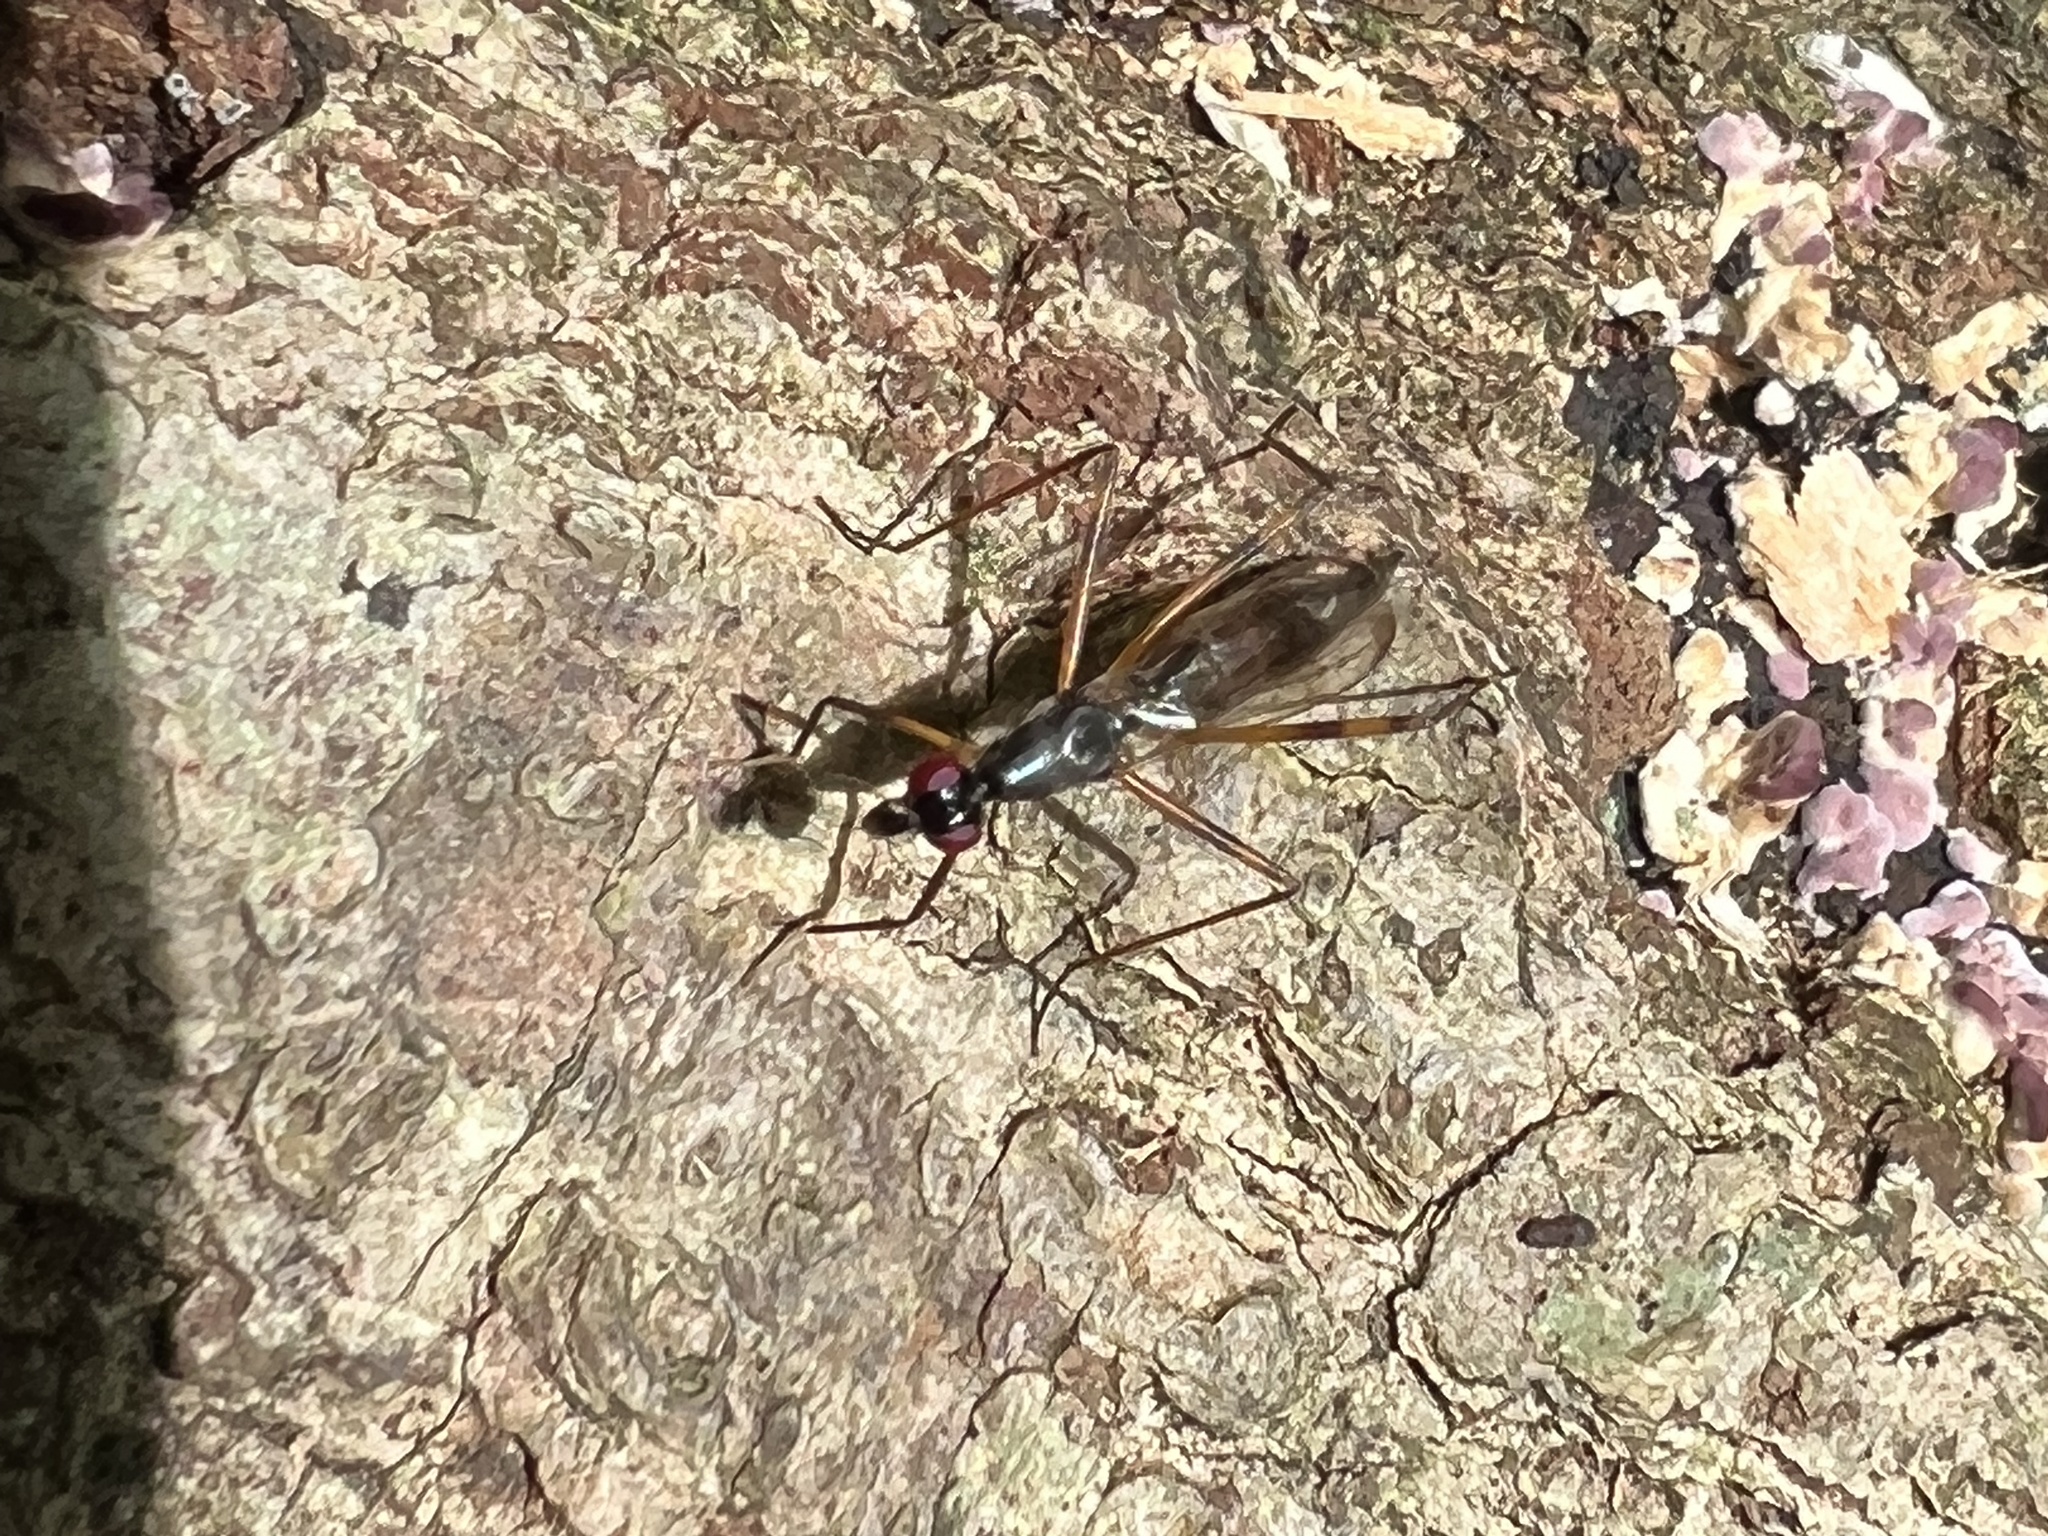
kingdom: Animalia
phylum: Arthropoda
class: Insecta
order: Diptera
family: Micropezidae
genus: Rainieria
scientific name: Rainieria antennaepes
